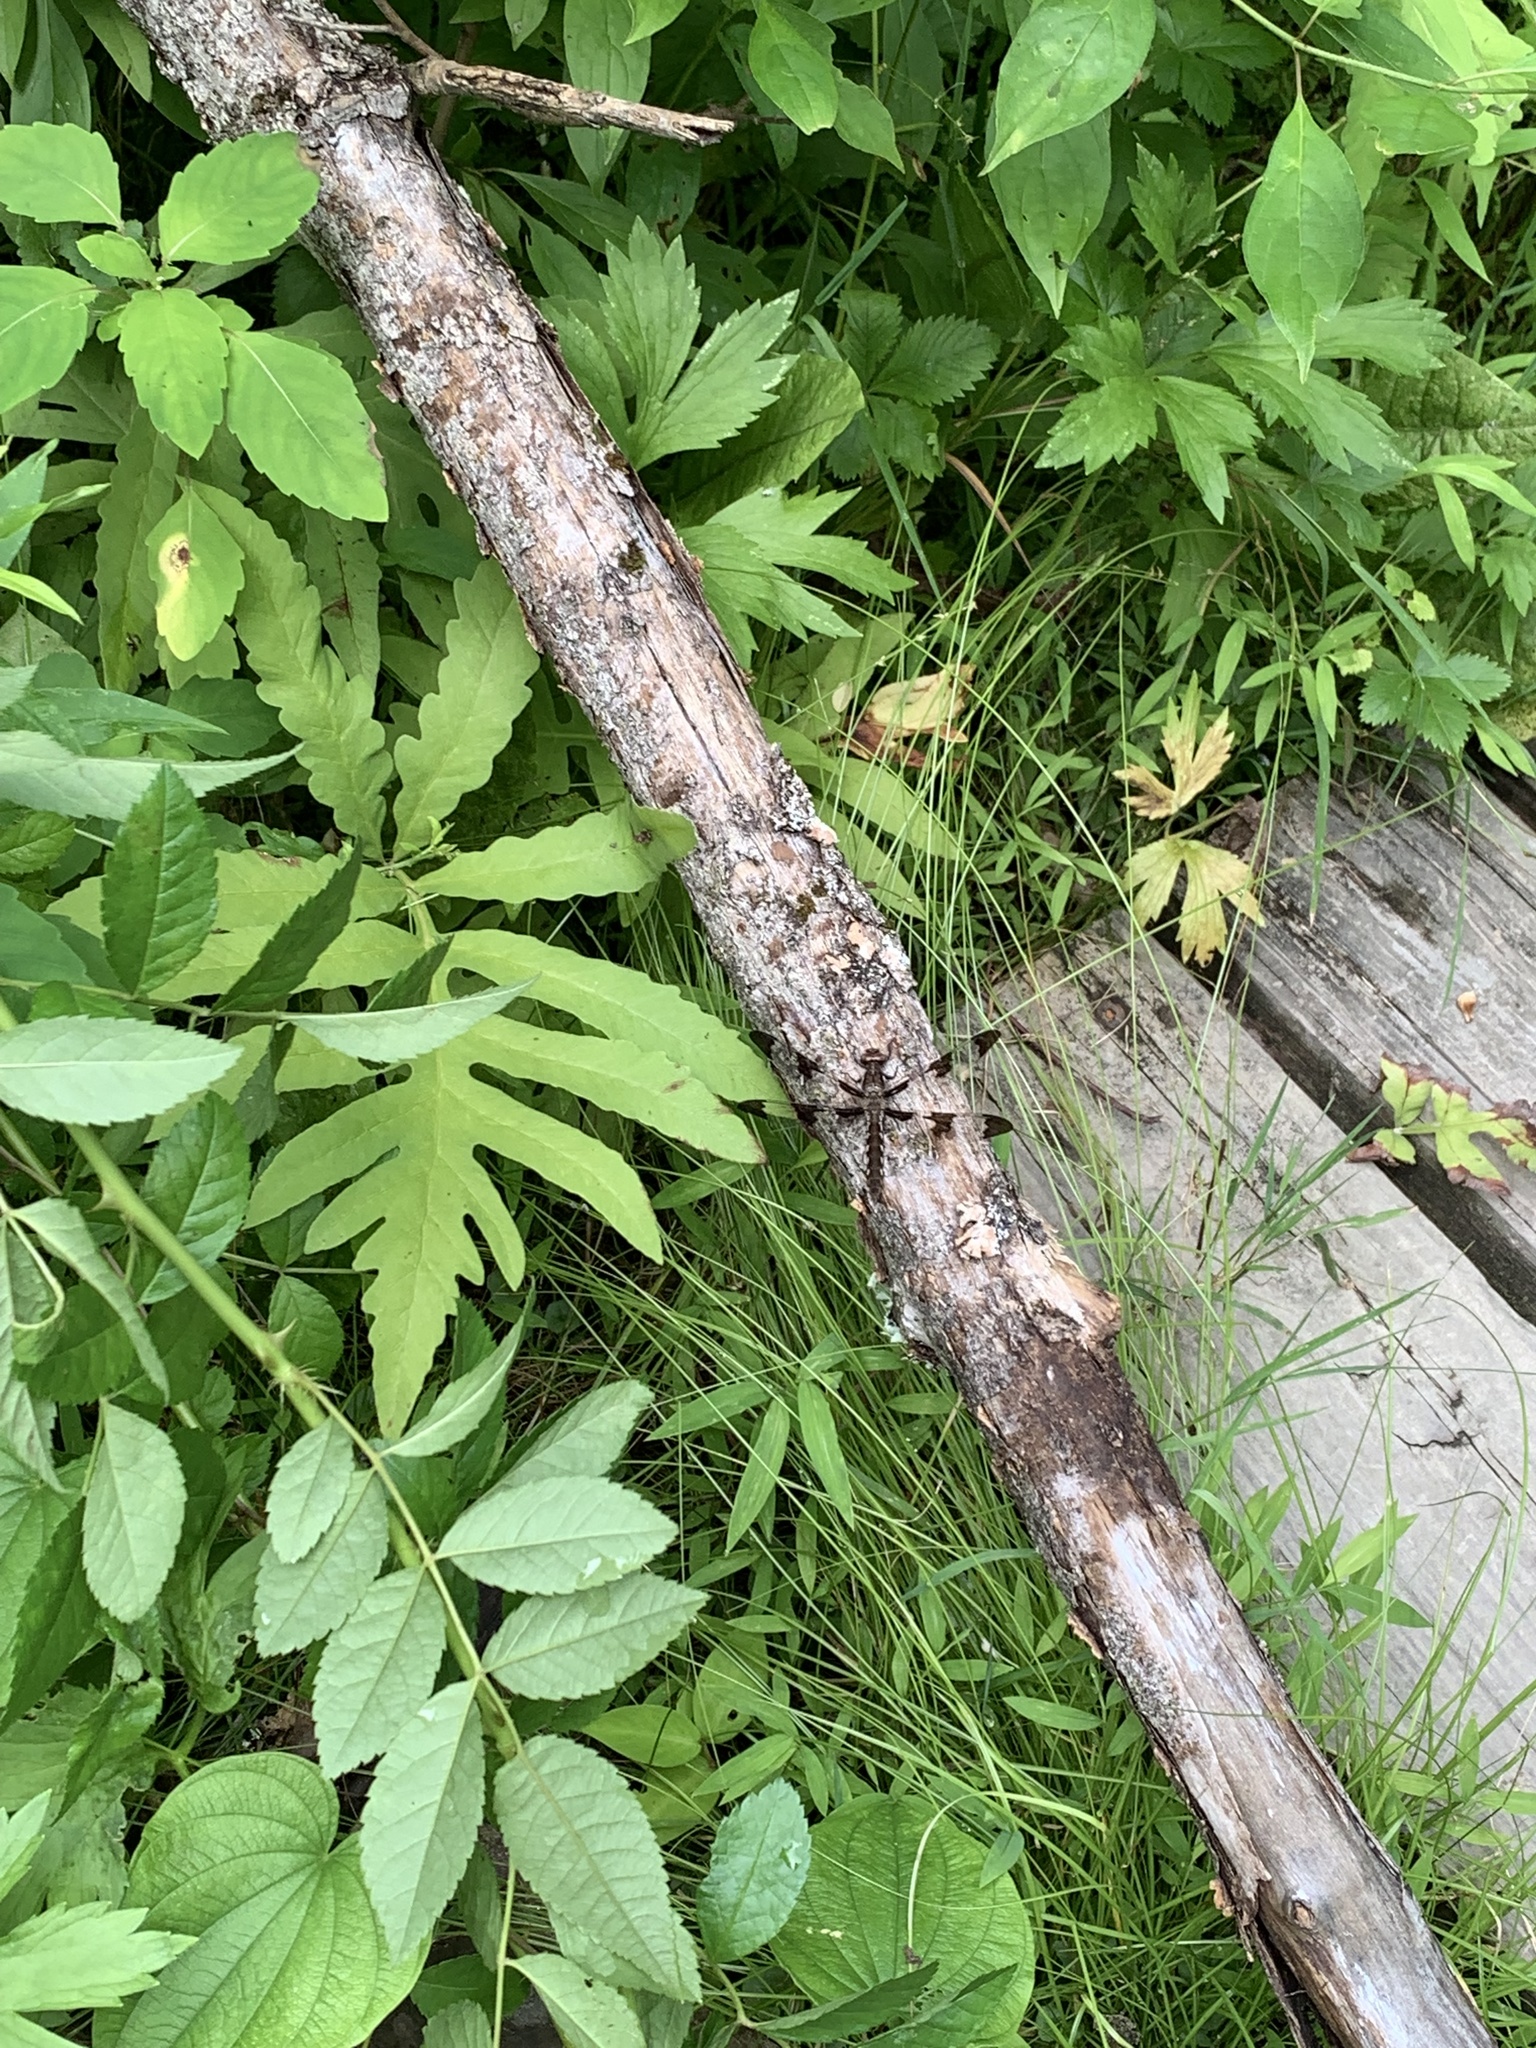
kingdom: Animalia
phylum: Arthropoda
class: Insecta
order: Odonata
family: Libellulidae
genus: Plathemis
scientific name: Plathemis lydia
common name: Common whitetail
